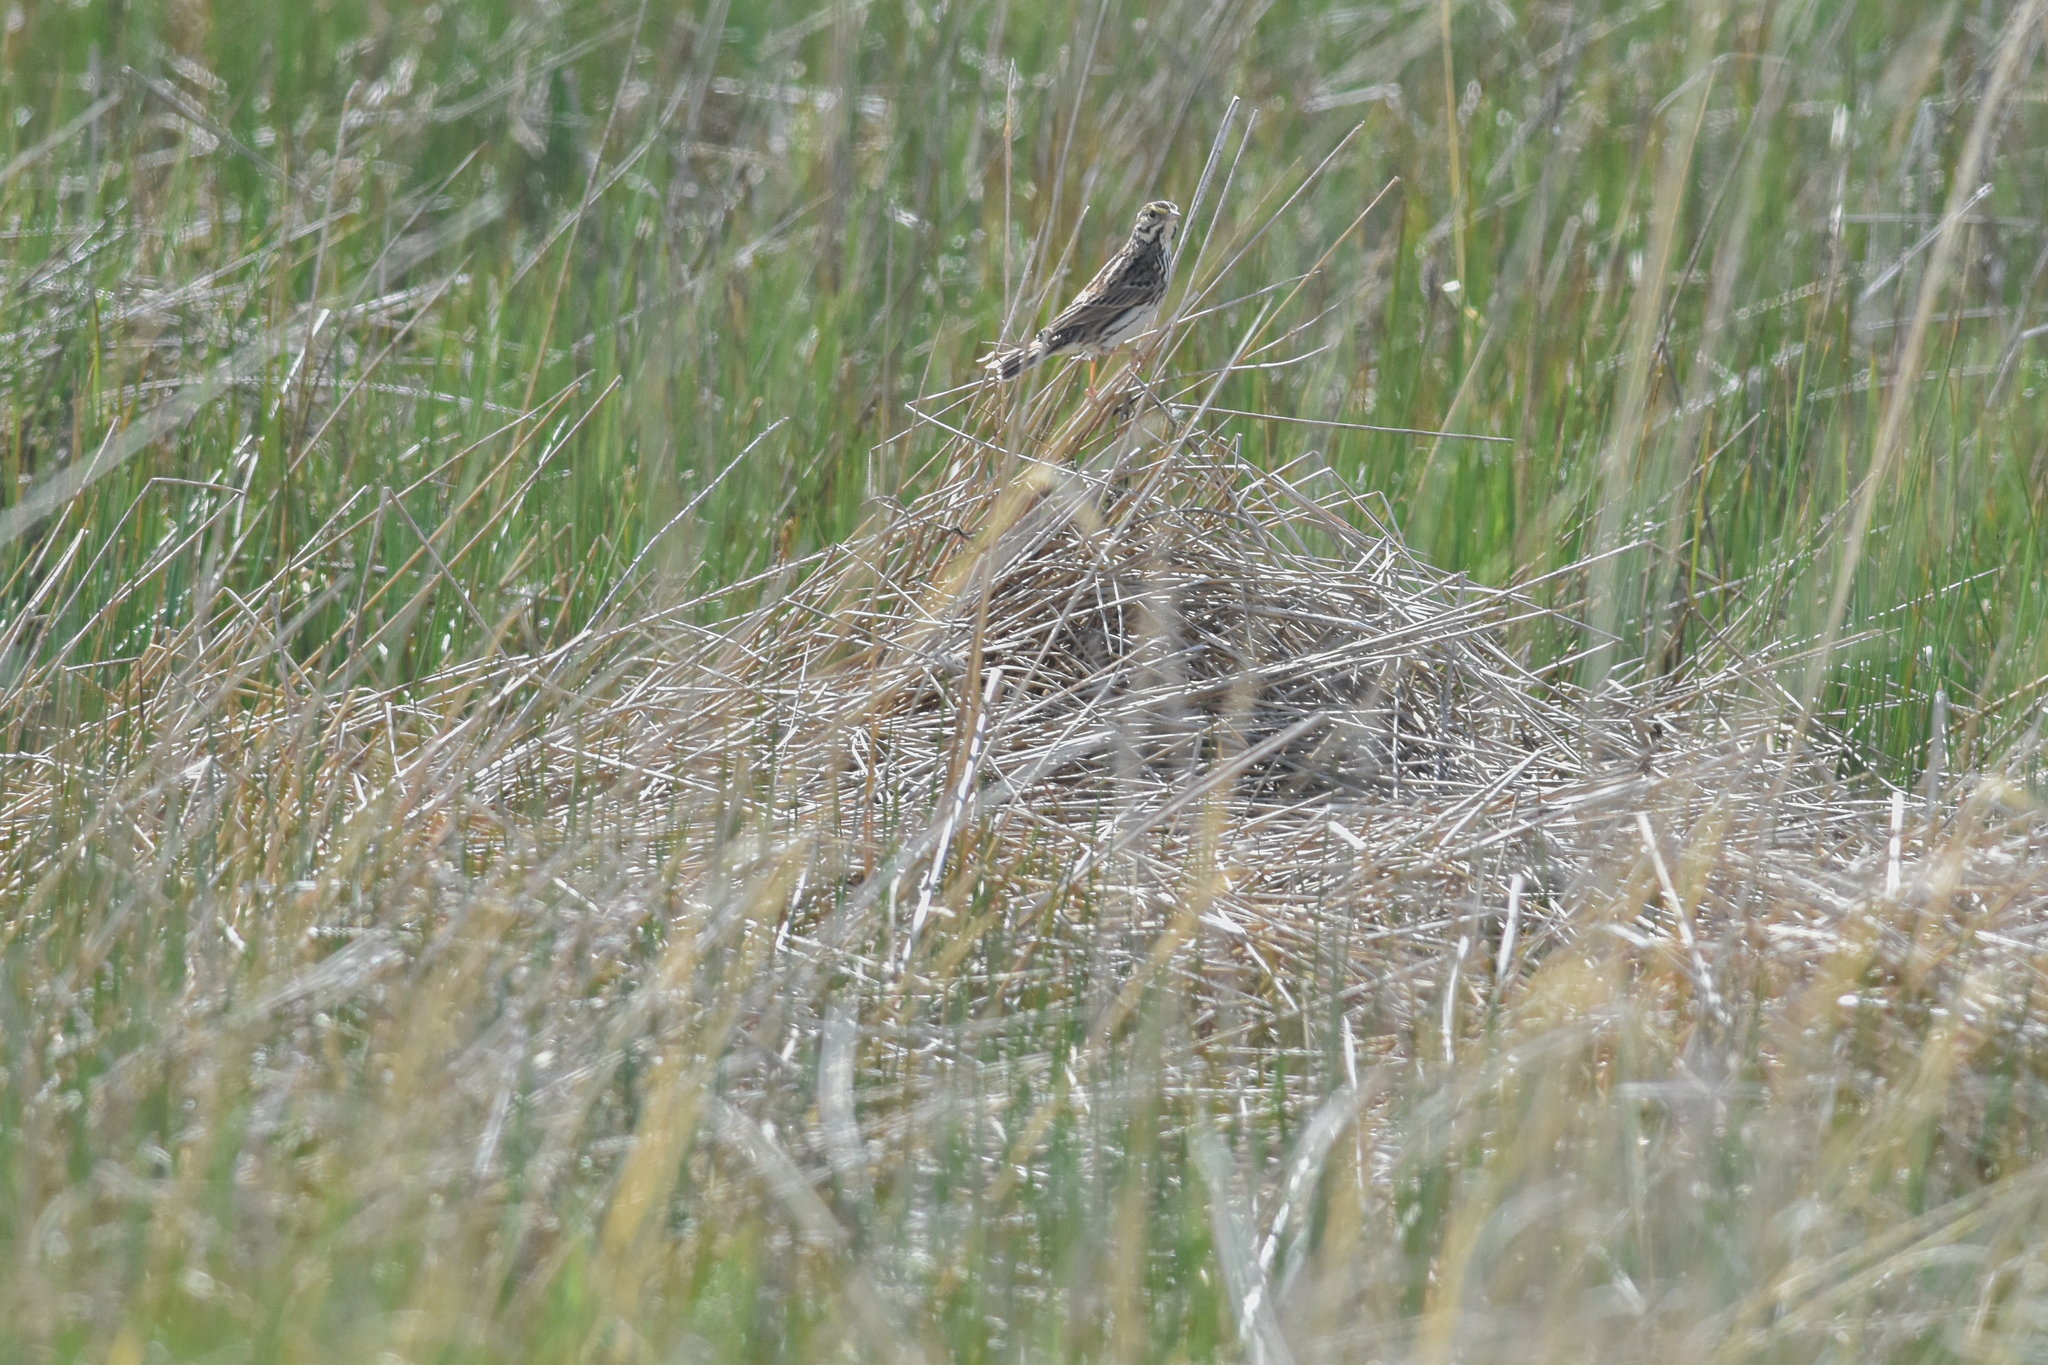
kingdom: Animalia
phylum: Chordata
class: Aves
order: Passeriformes
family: Passerellidae
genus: Passerculus
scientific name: Passerculus sandwichensis
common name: Savannah sparrow
